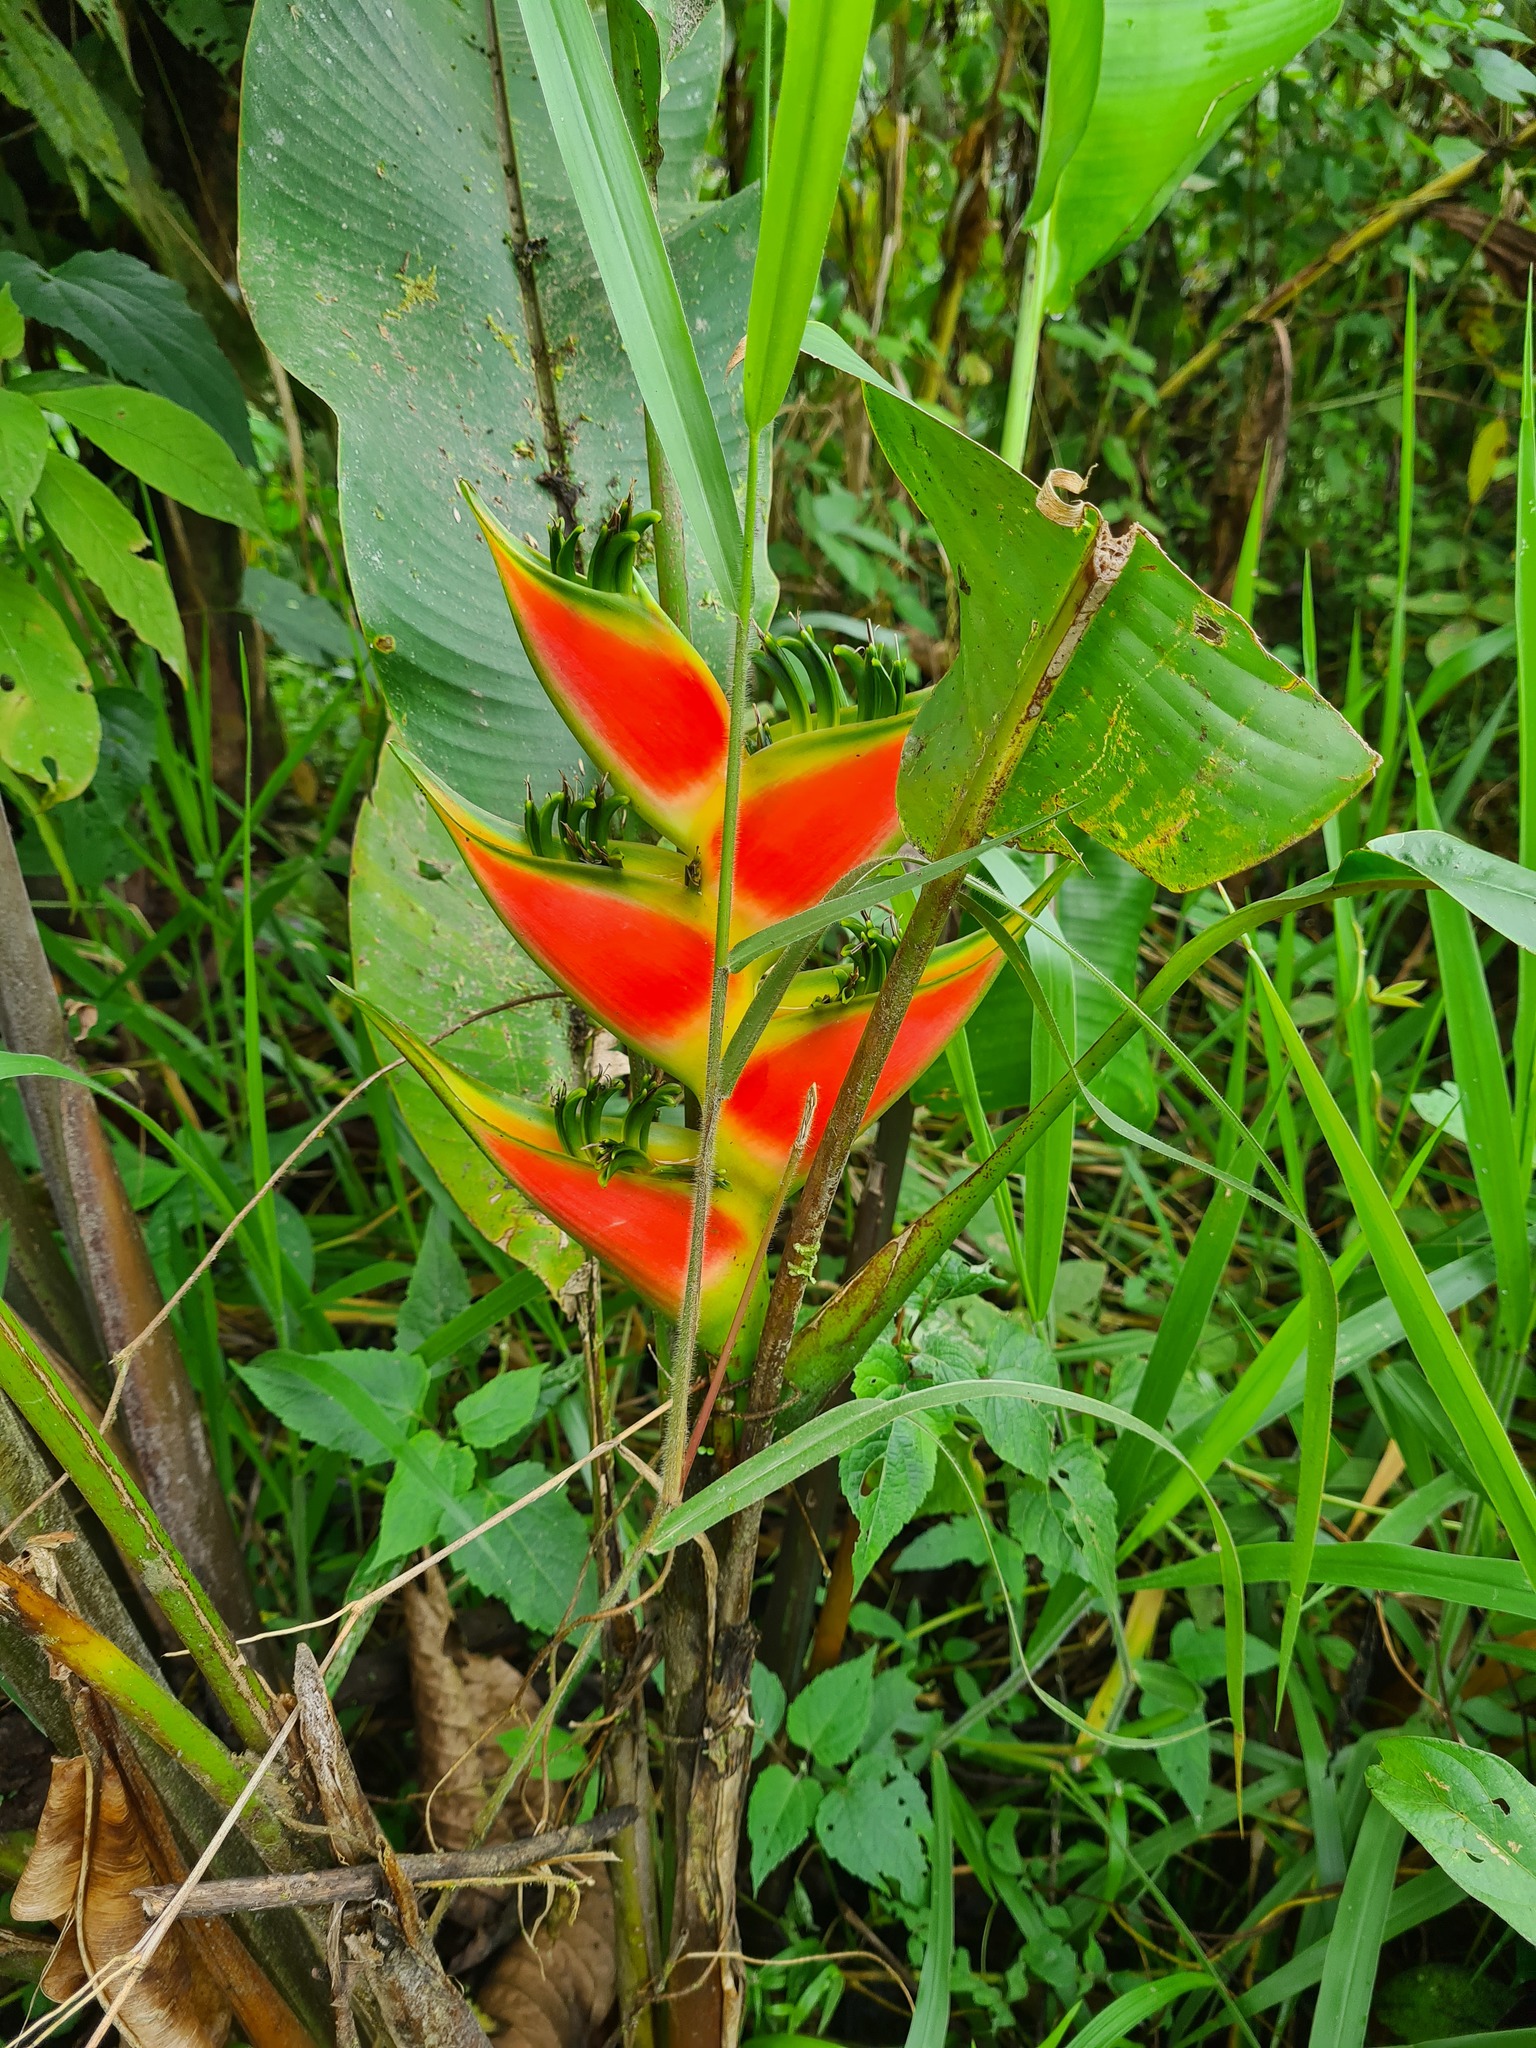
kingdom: Plantae
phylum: Tracheophyta
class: Liliopsida
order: Zingiberales
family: Heliconiaceae
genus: Heliconia
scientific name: Heliconia wagneriana
